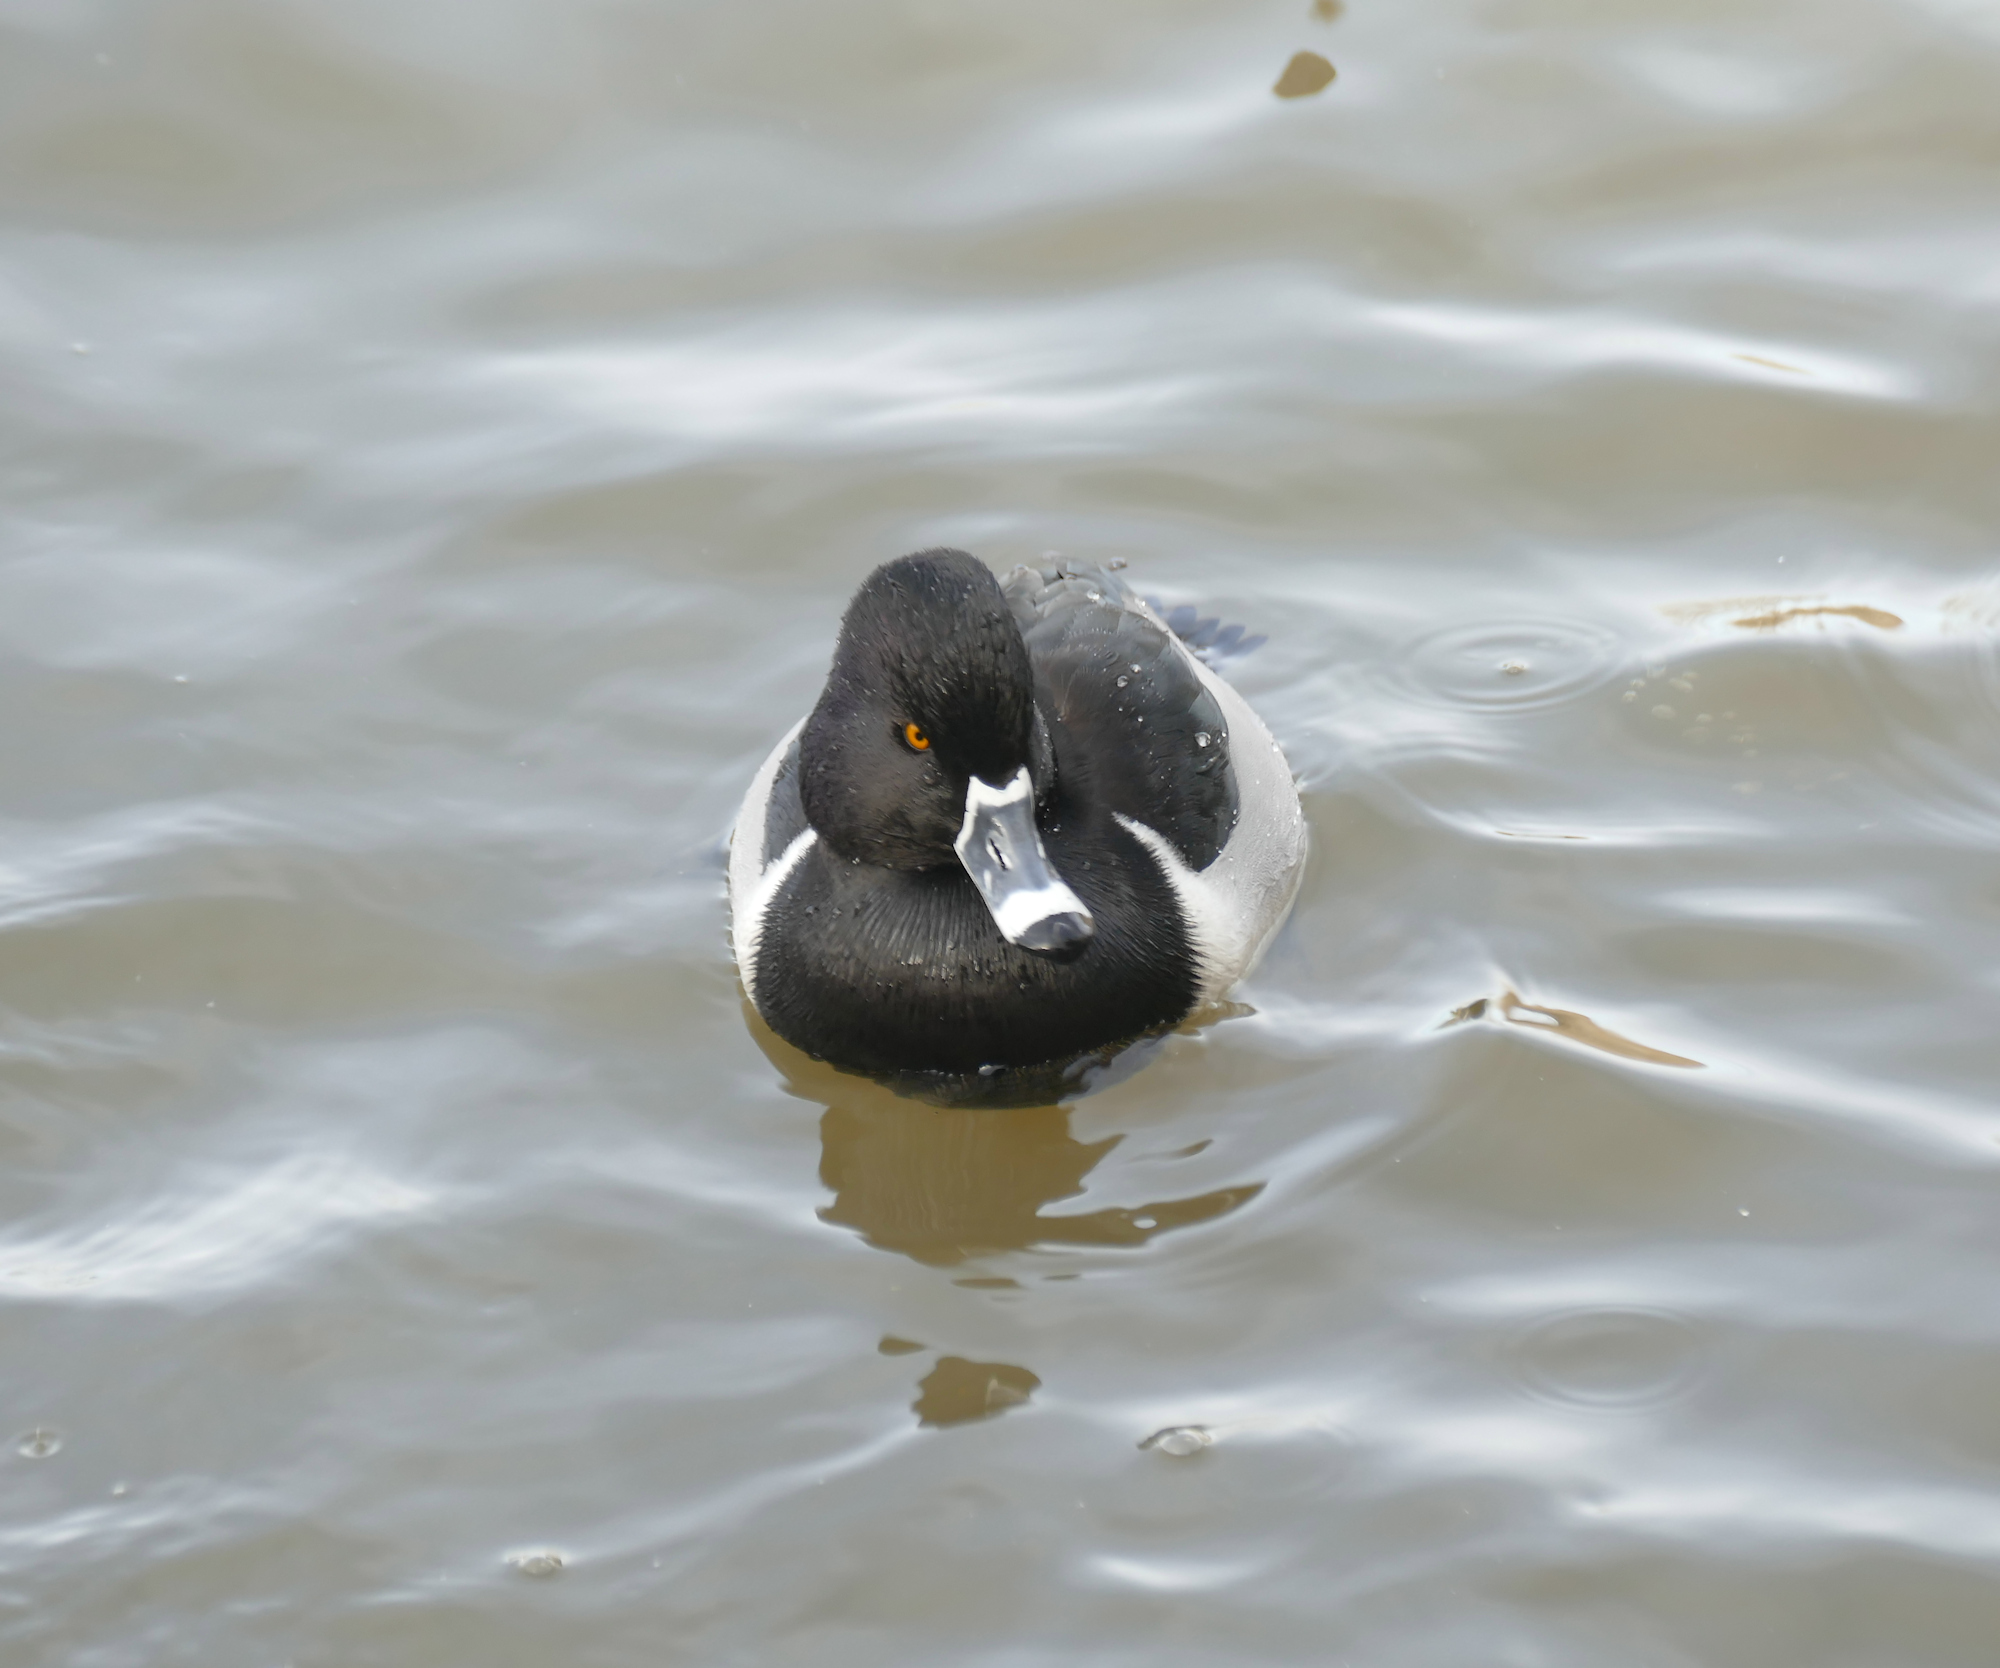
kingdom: Animalia
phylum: Chordata
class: Aves
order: Anseriformes
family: Anatidae
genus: Aythya
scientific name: Aythya collaris
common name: Ring-necked duck
